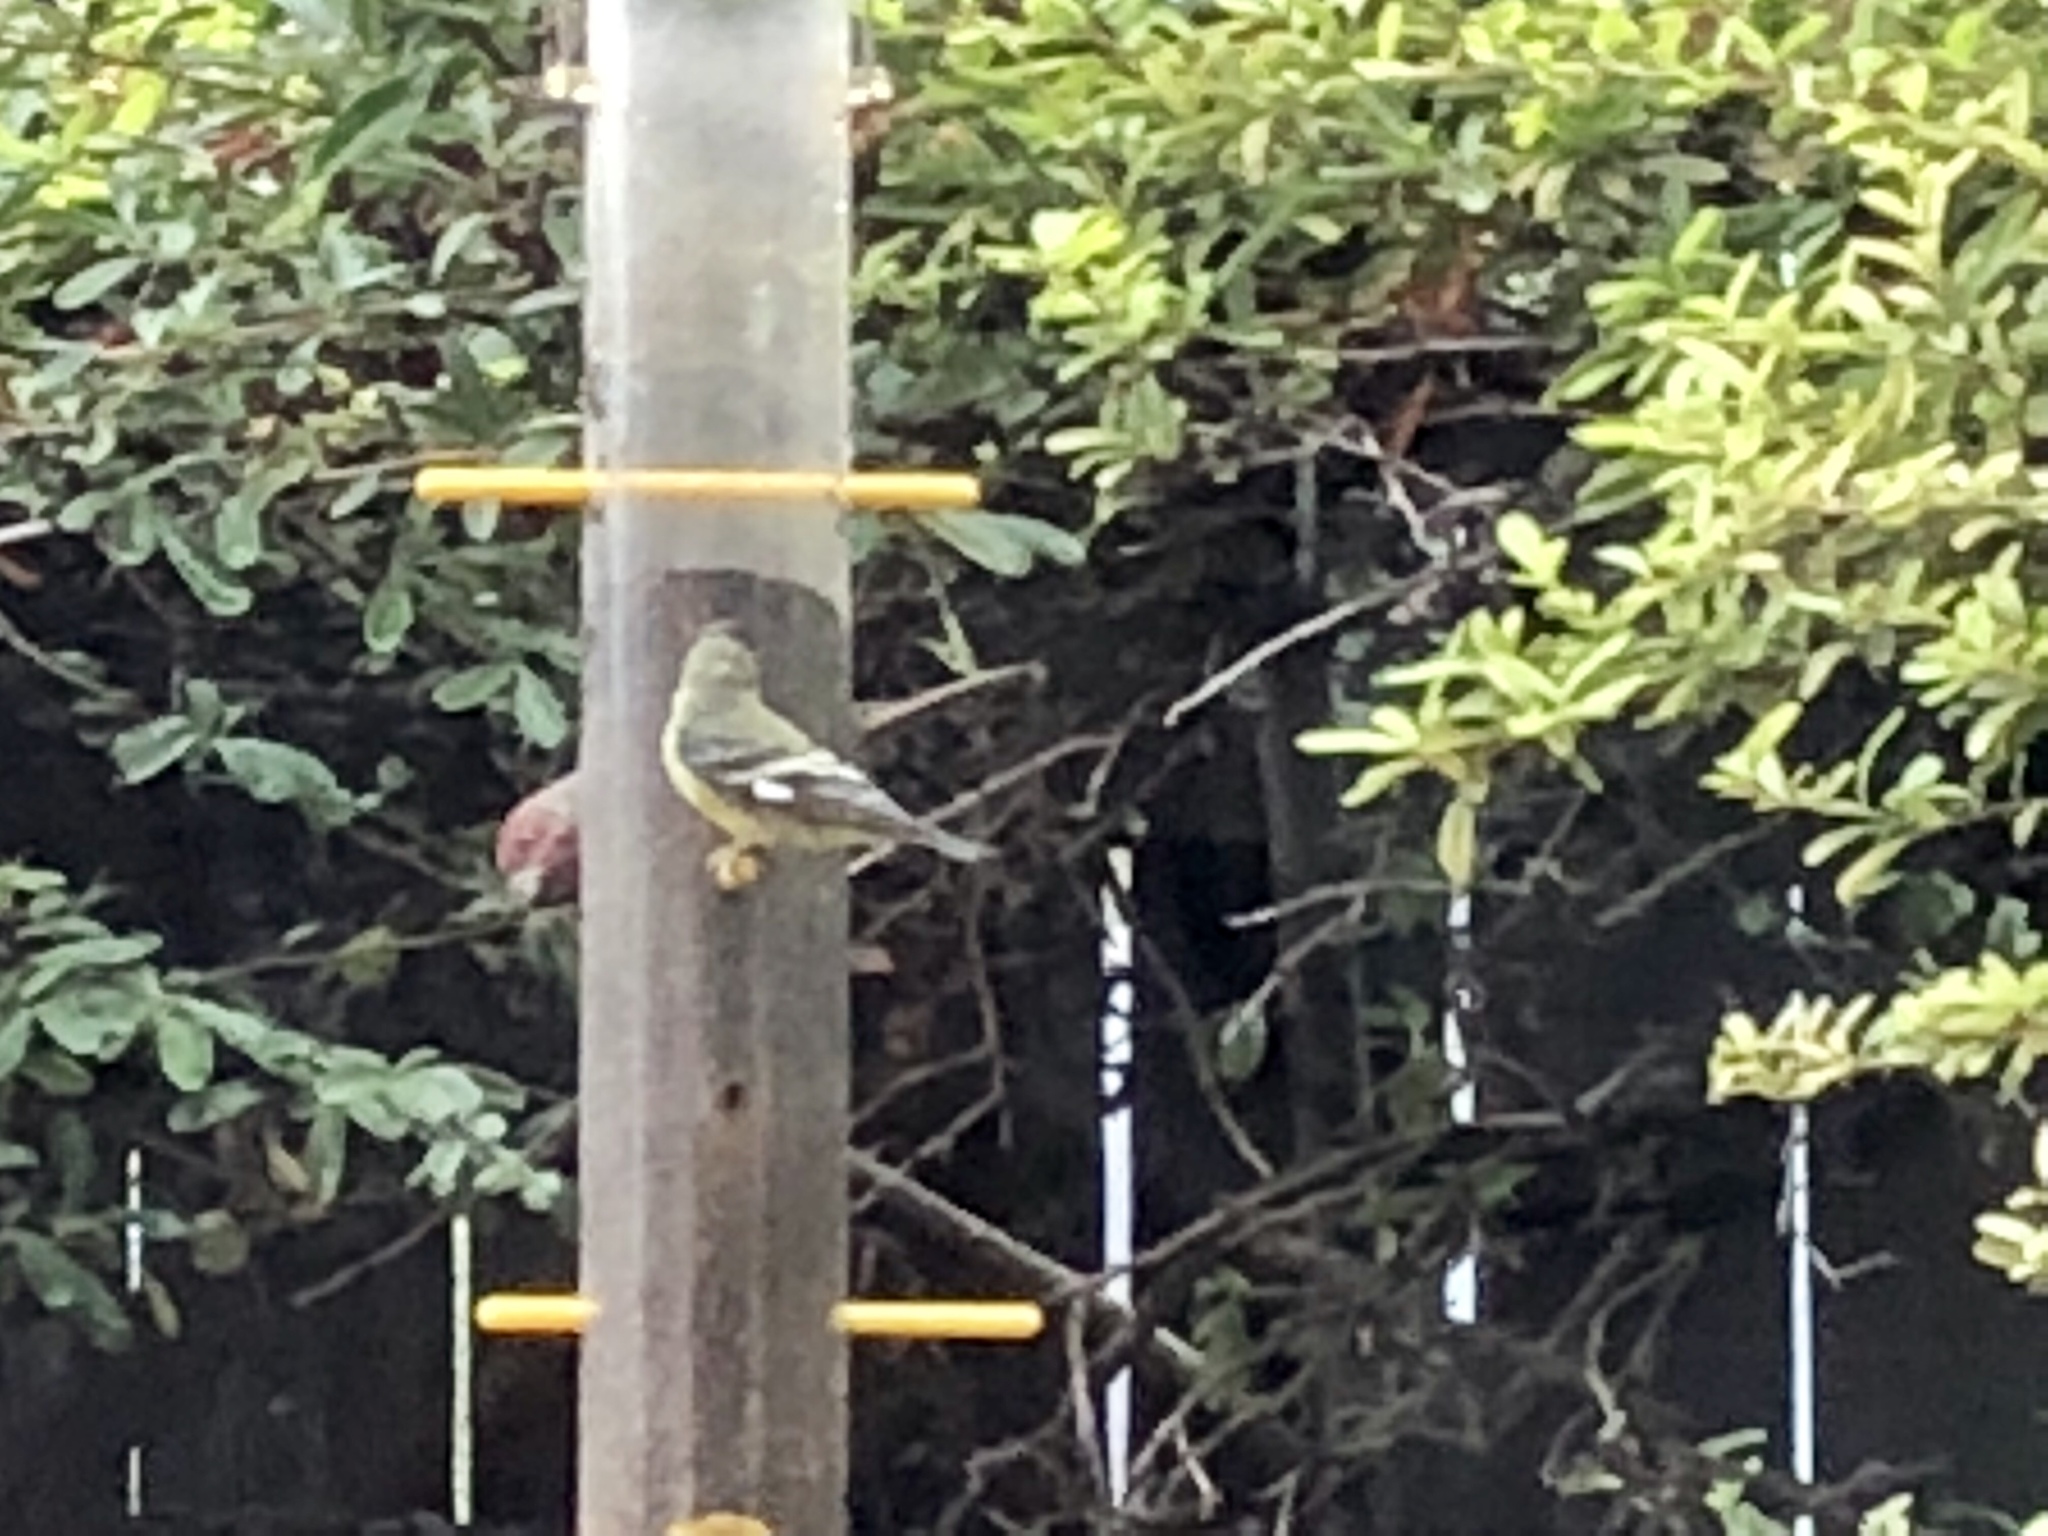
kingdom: Animalia
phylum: Chordata
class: Aves
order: Passeriformes
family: Fringillidae
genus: Spinus
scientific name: Spinus psaltria
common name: Lesser goldfinch
